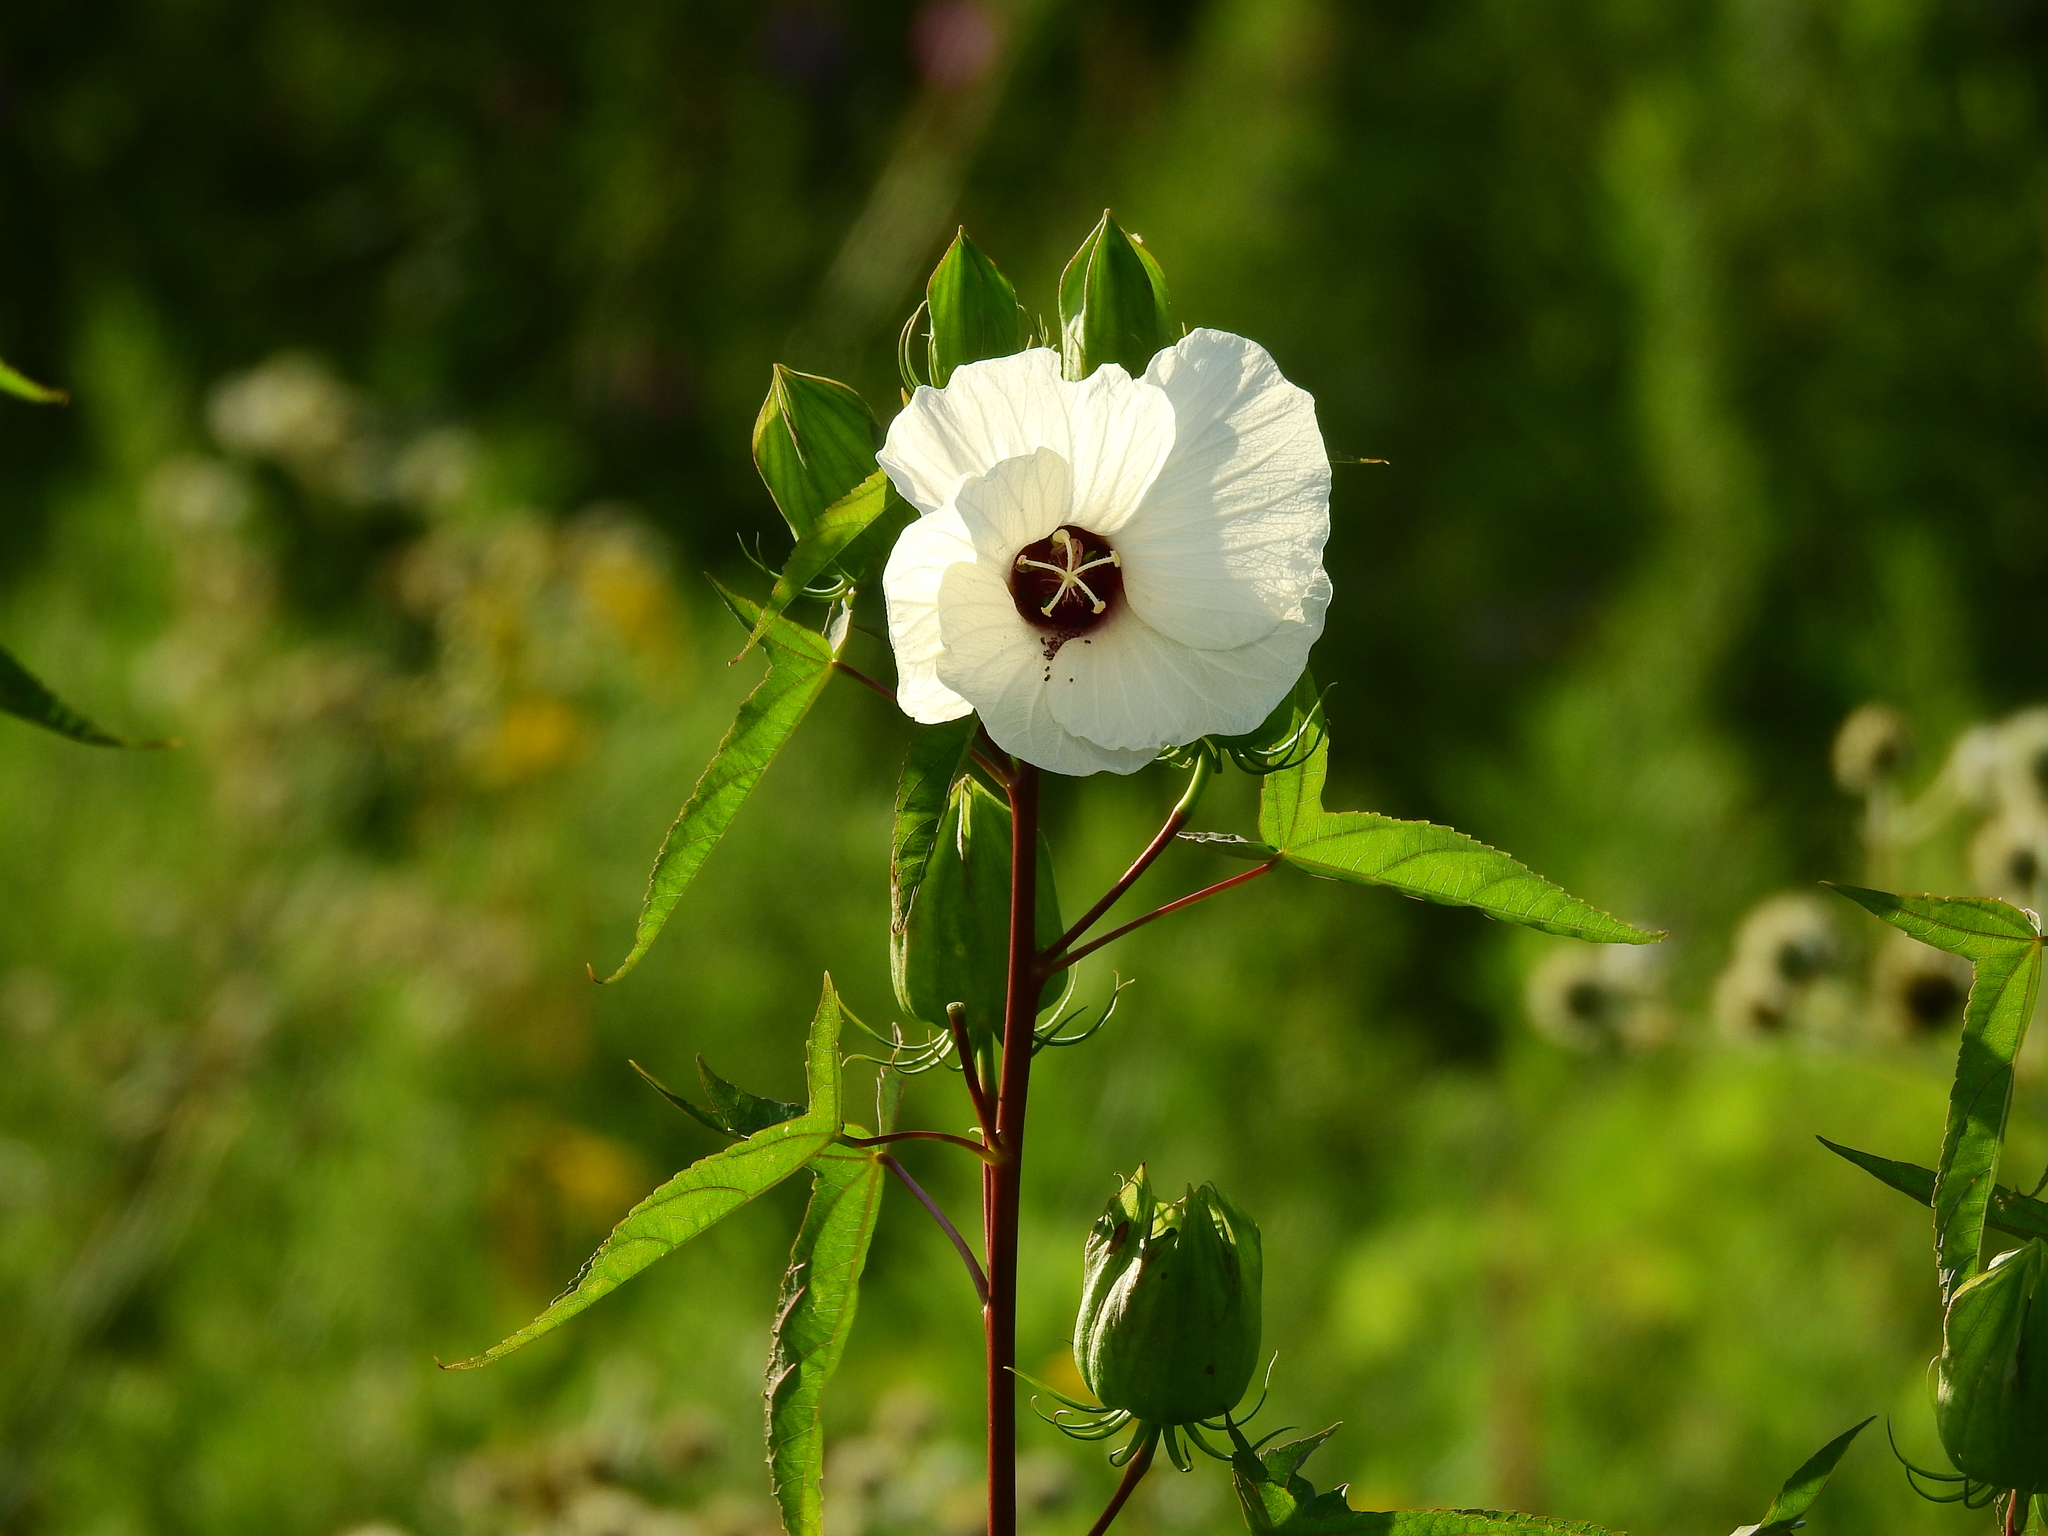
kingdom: Plantae
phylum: Tracheophyta
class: Magnoliopsida
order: Malvales
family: Malvaceae
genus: Hibiscus
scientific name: Hibiscus laevis
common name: Scarlet rose-mallow
